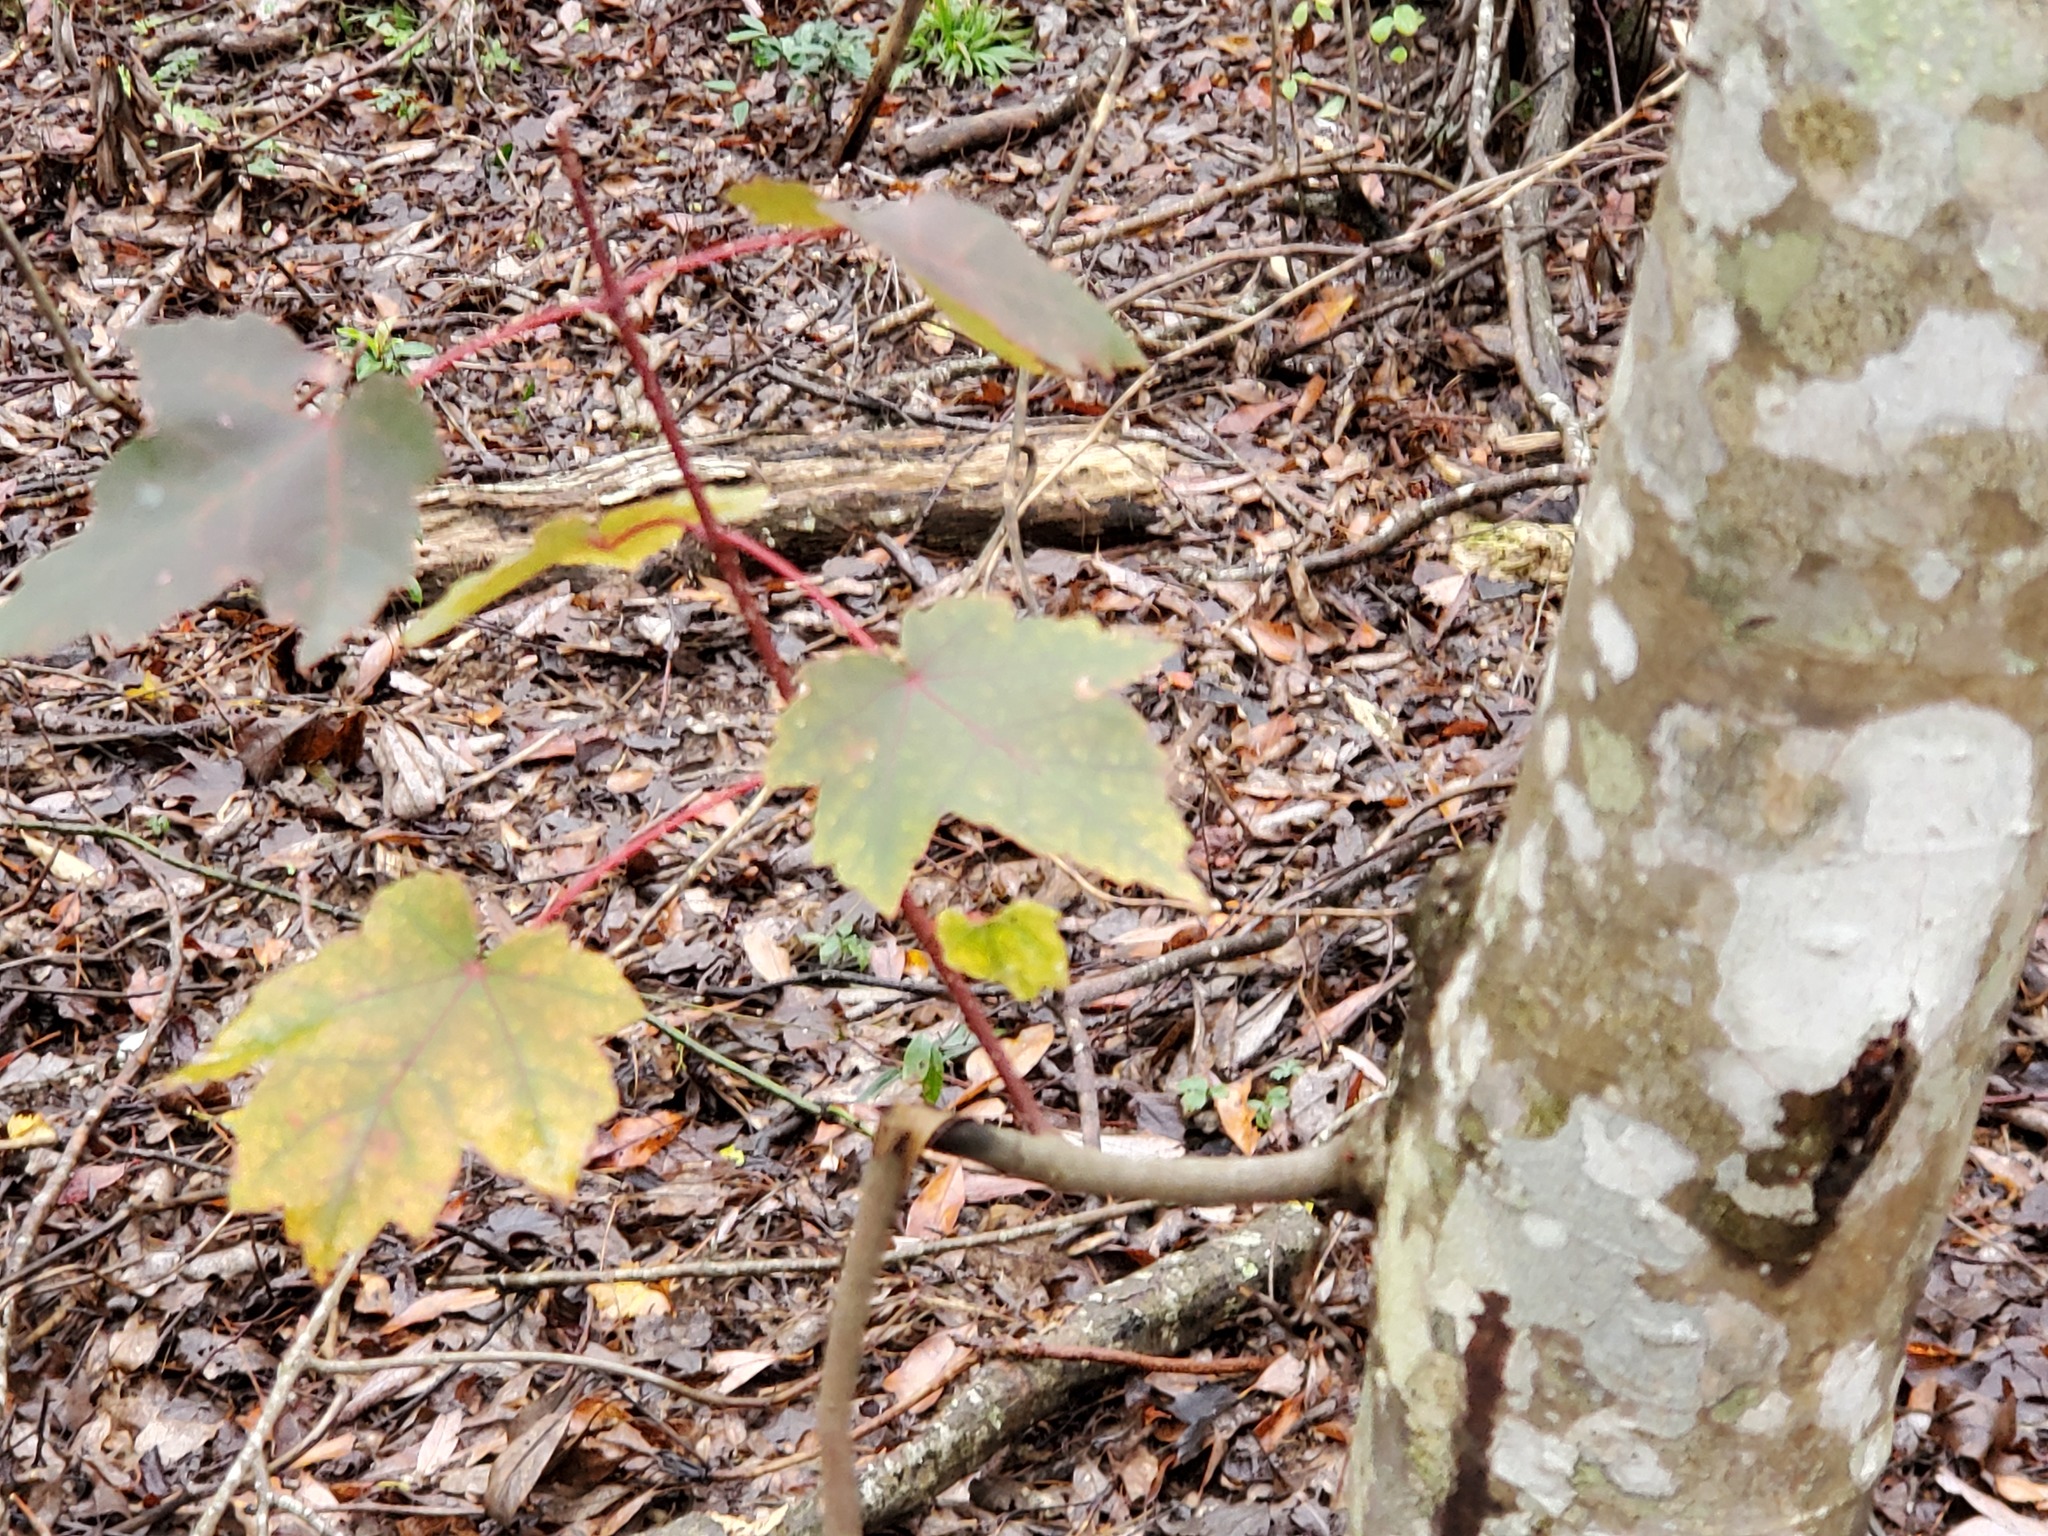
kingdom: Plantae
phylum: Tracheophyta
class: Magnoliopsida
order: Sapindales
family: Sapindaceae
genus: Acer
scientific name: Acer rubrum
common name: Red maple
